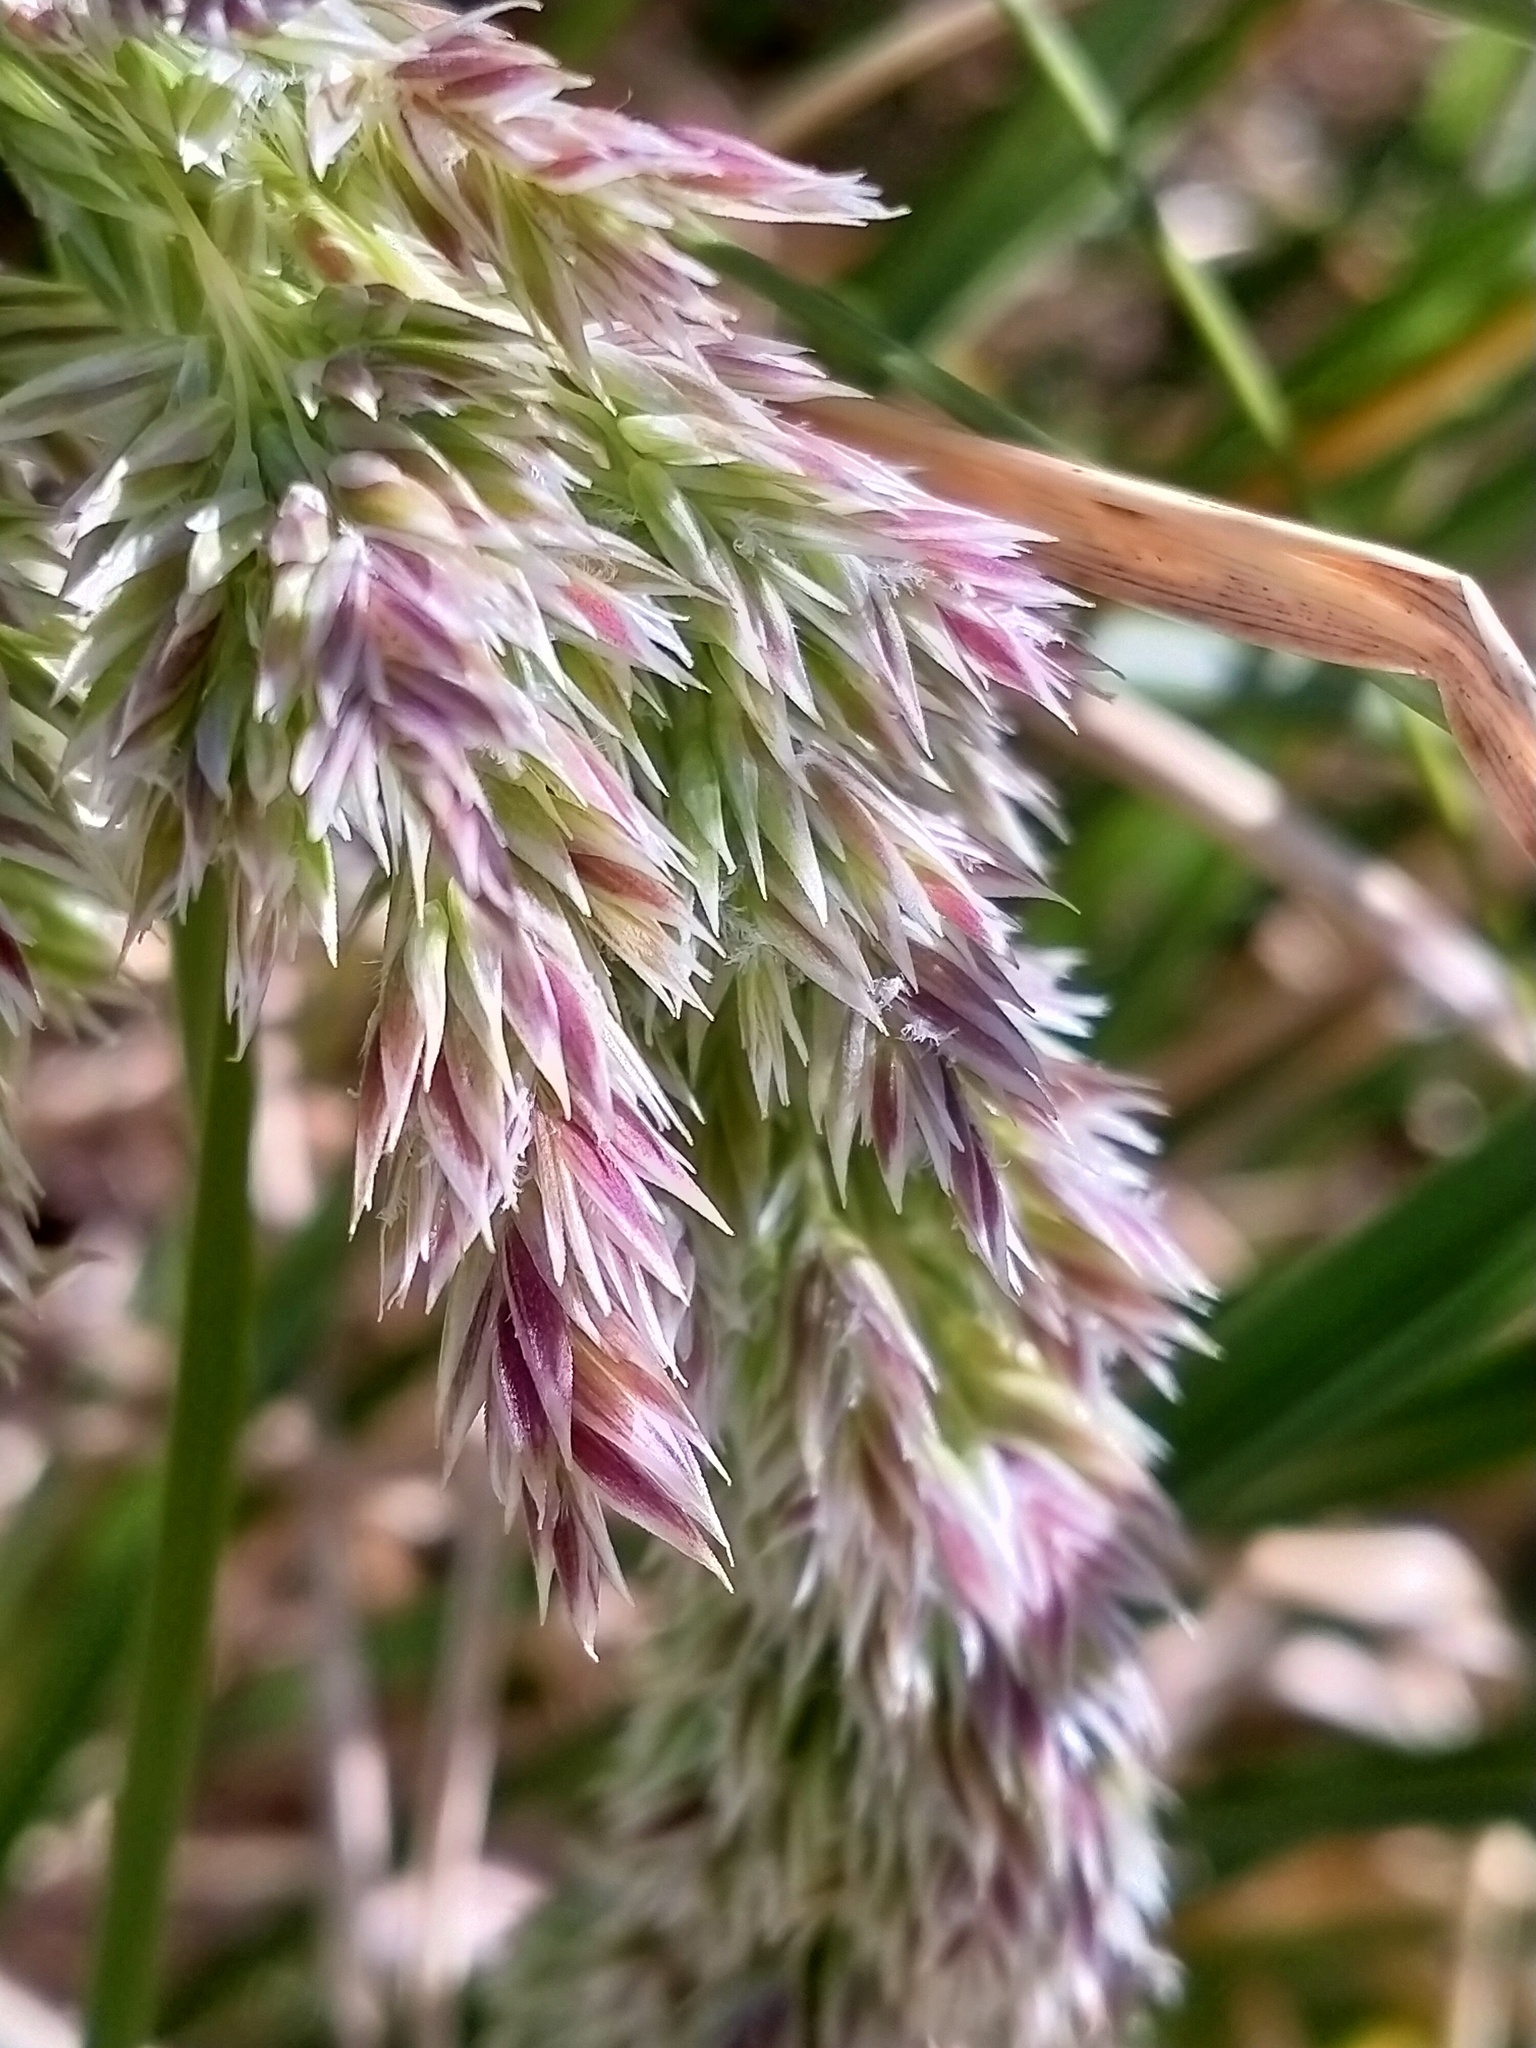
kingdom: Plantae
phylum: Tracheophyta
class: Liliopsida
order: Poales
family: Poaceae
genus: Poa
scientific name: Poa foliosa
